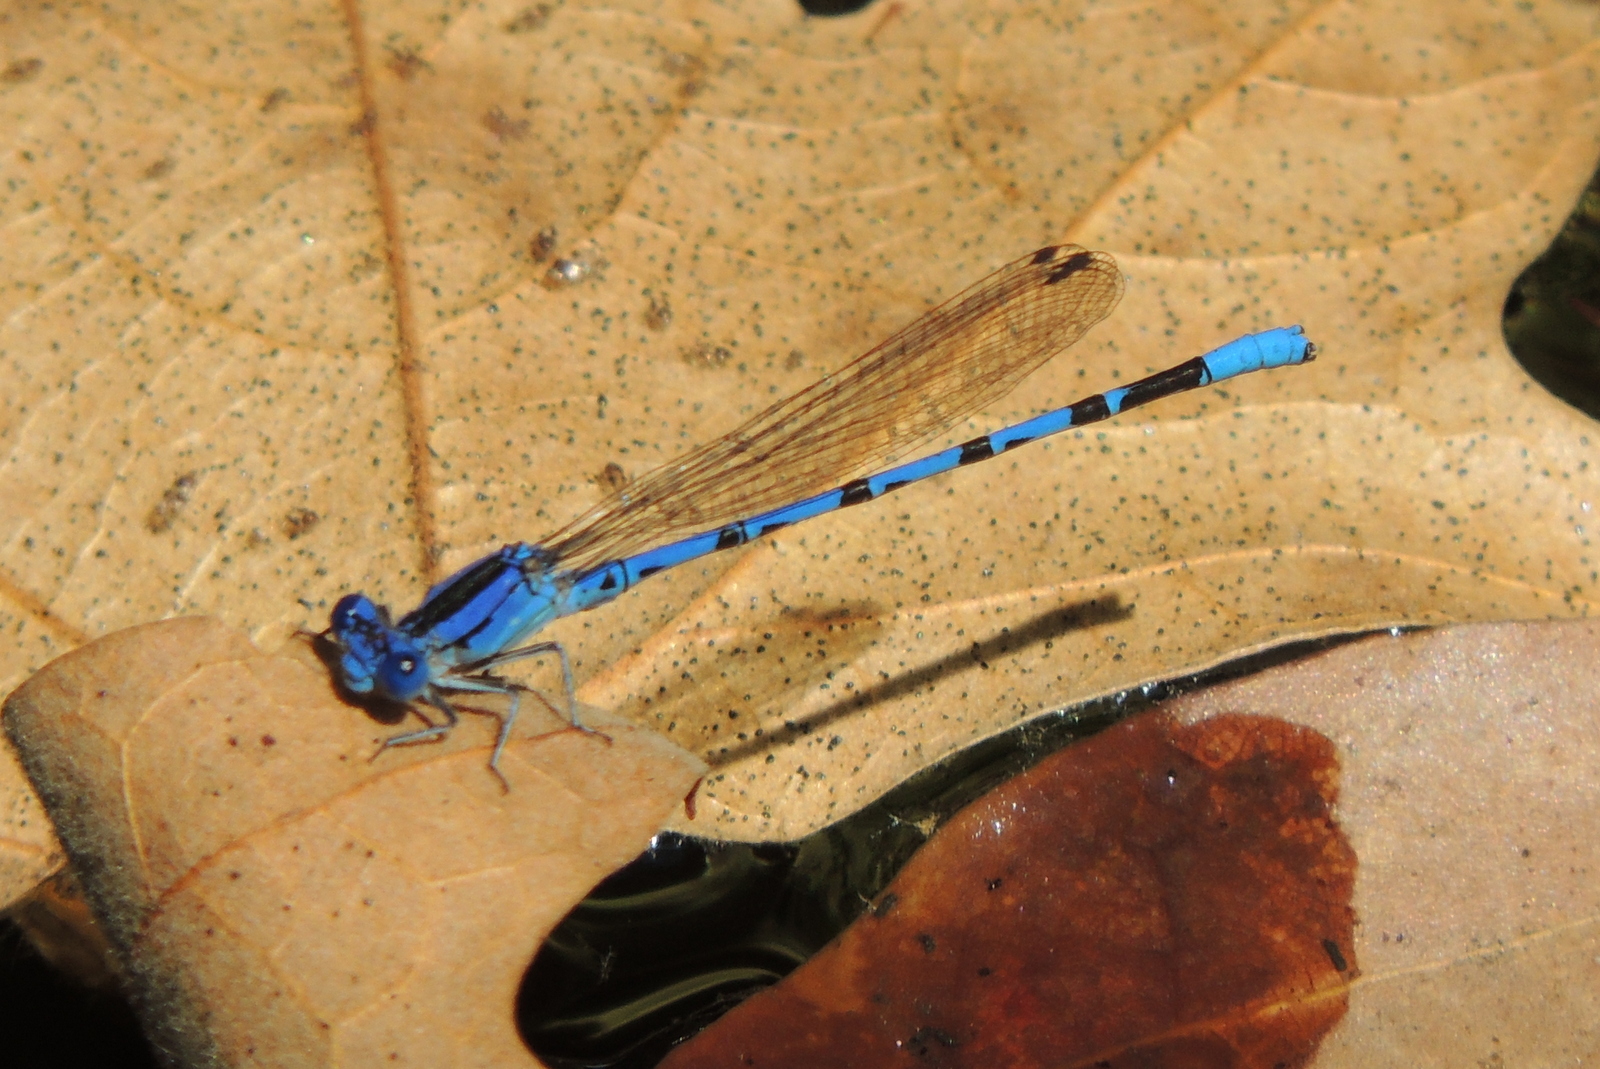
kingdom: Animalia
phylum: Arthropoda
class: Insecta
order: Odonata
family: Coenagrionidae
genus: Argia
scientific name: Argia vivida
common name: Vivid dancer
